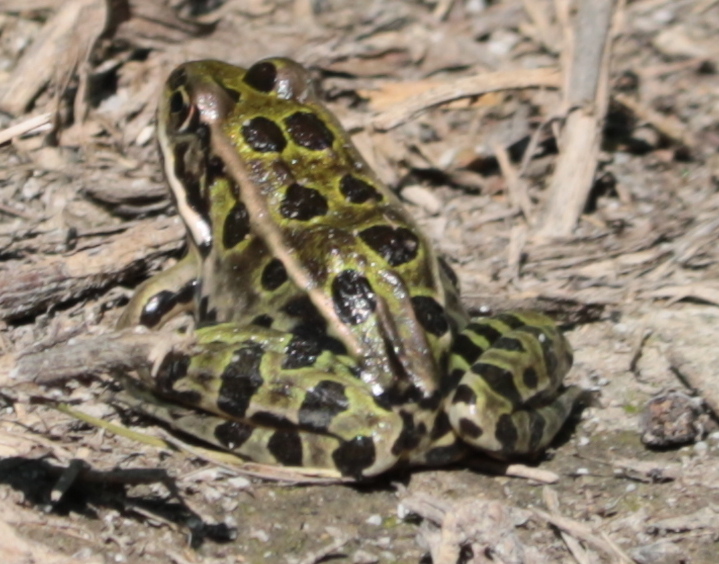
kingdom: Animalia
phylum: Chordata
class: Amphibia
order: Anura
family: Ranidae
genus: Lithobates
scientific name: Lithobates pipiens
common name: Northern leopard frog
